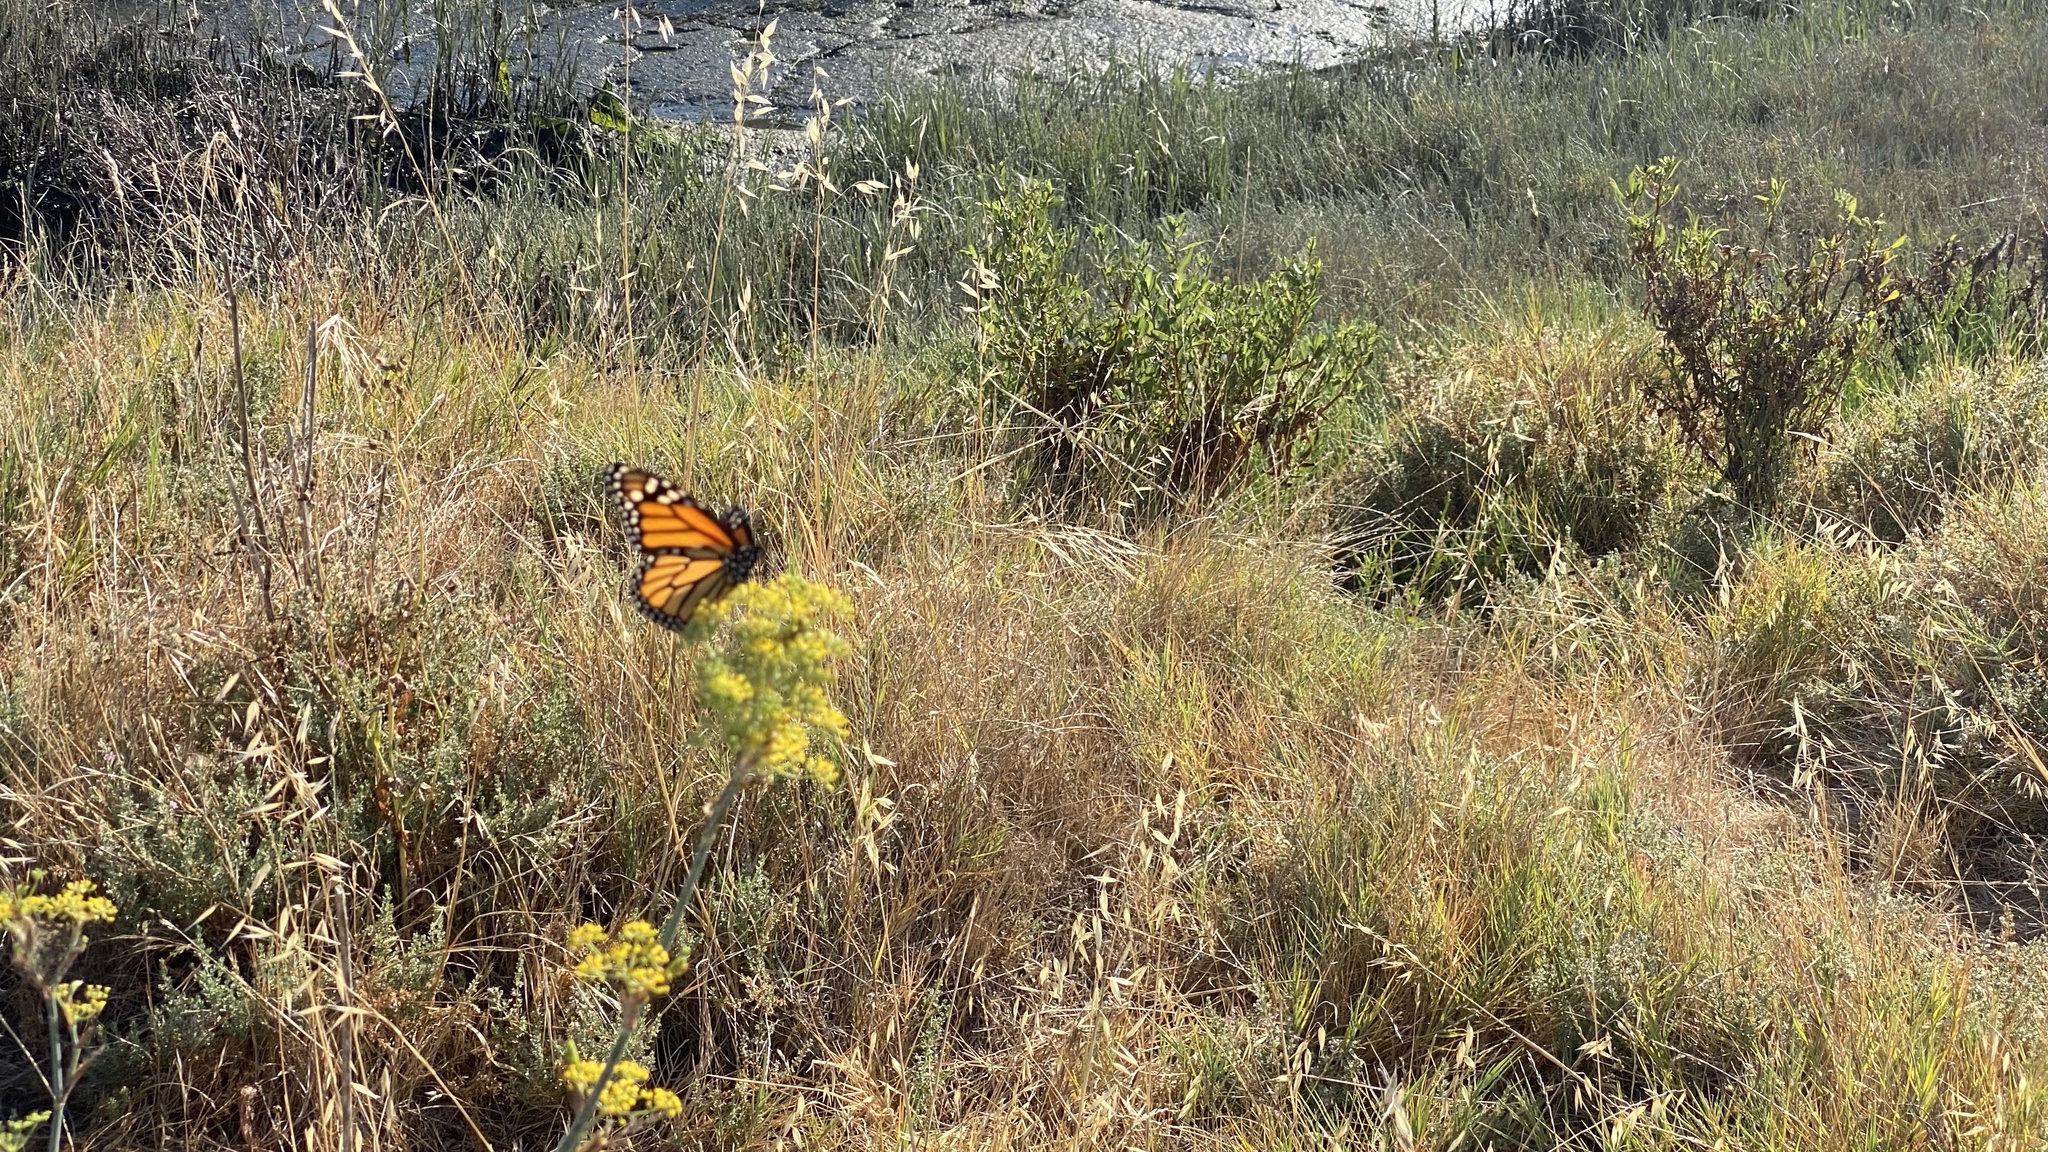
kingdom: Animalia
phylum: Arthropoda
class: Insecta
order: Lepidoptera
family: Nymphalidae
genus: Danaus
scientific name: Danaus plexippus
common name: Monarch
